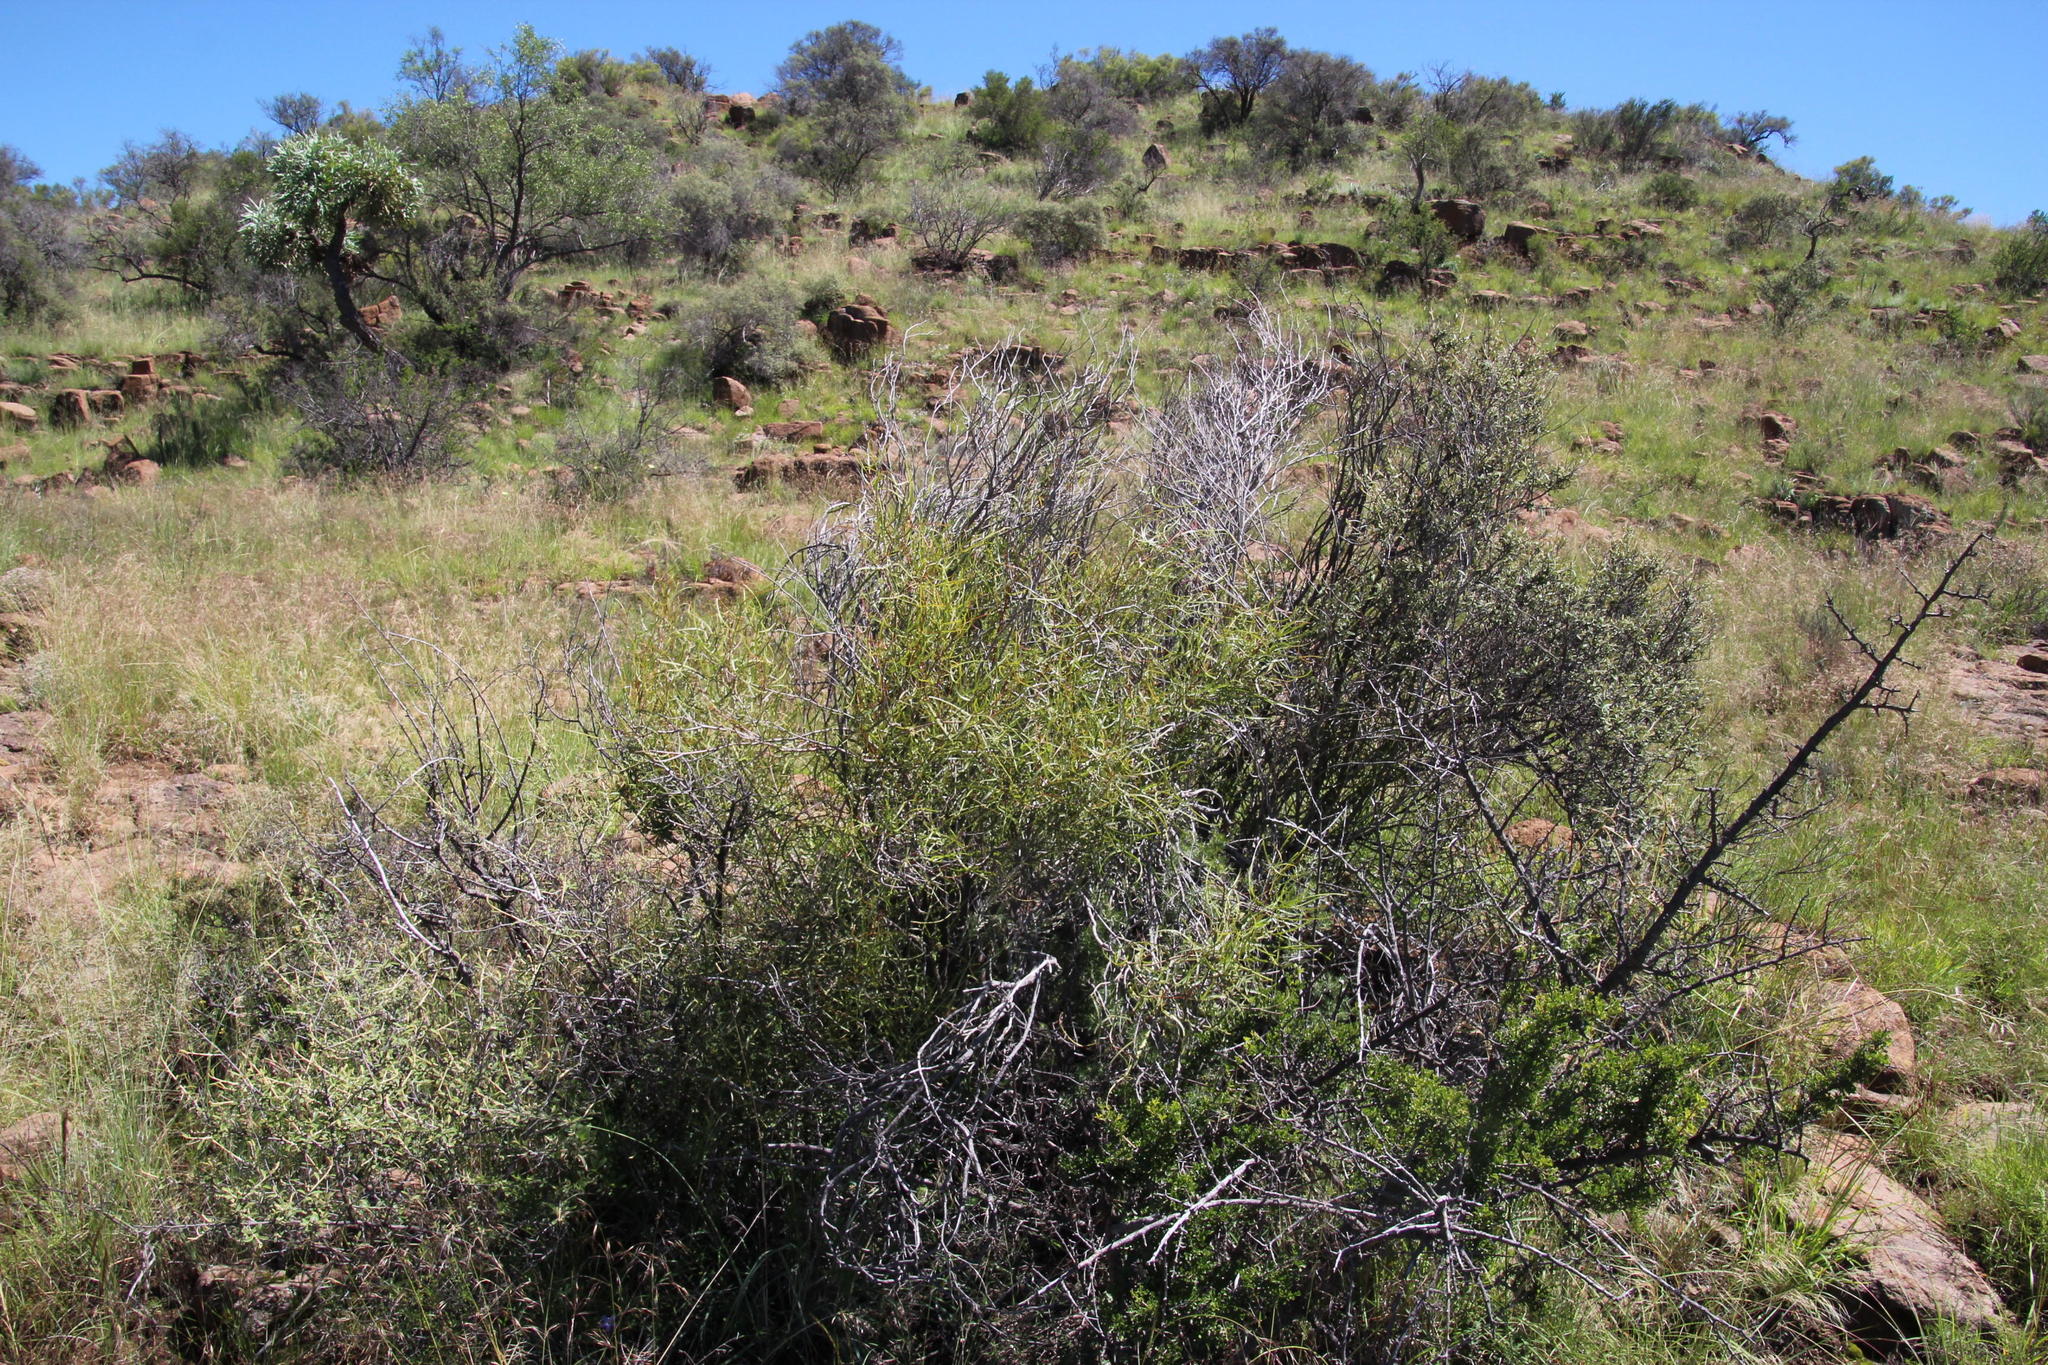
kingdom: Plantae
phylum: Tracheophyta
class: Magnoliopsida
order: Sapindales
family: Anacardiaceae
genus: Searsia
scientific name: Searsia erosa
